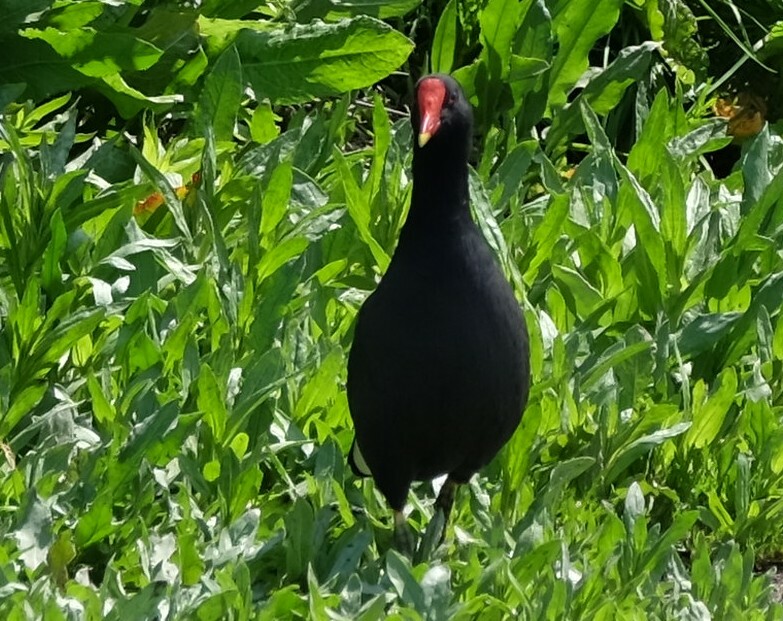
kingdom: Animalia
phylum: Chordata
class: Aves
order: Gruiformes
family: Rallidae
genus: Gallinula
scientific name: Gallinula chloropus
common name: Common moorhen
